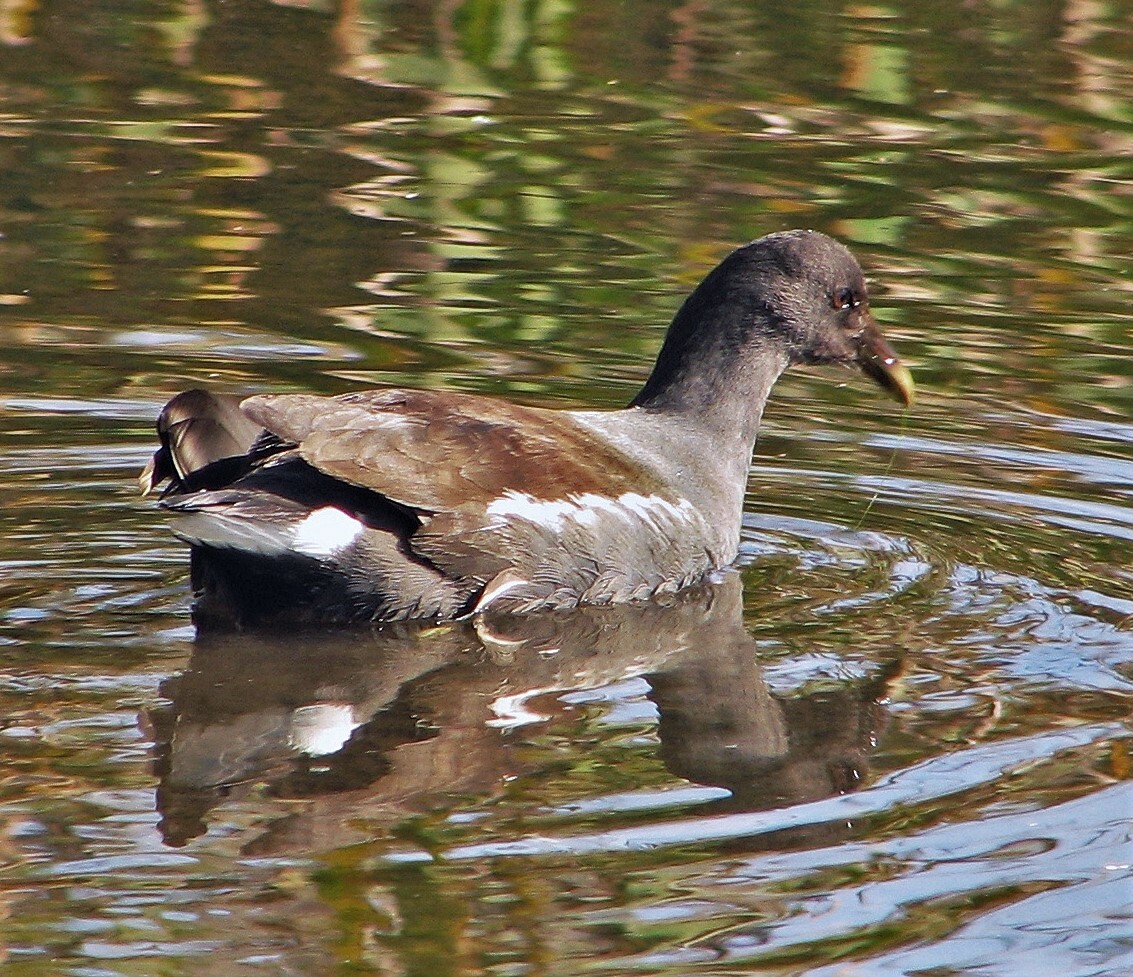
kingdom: Animalia
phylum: Chordata
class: Aves
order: Gruiformes
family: Rallidae
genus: Gallinula
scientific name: Gallinula chloropus
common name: Common moorhen
